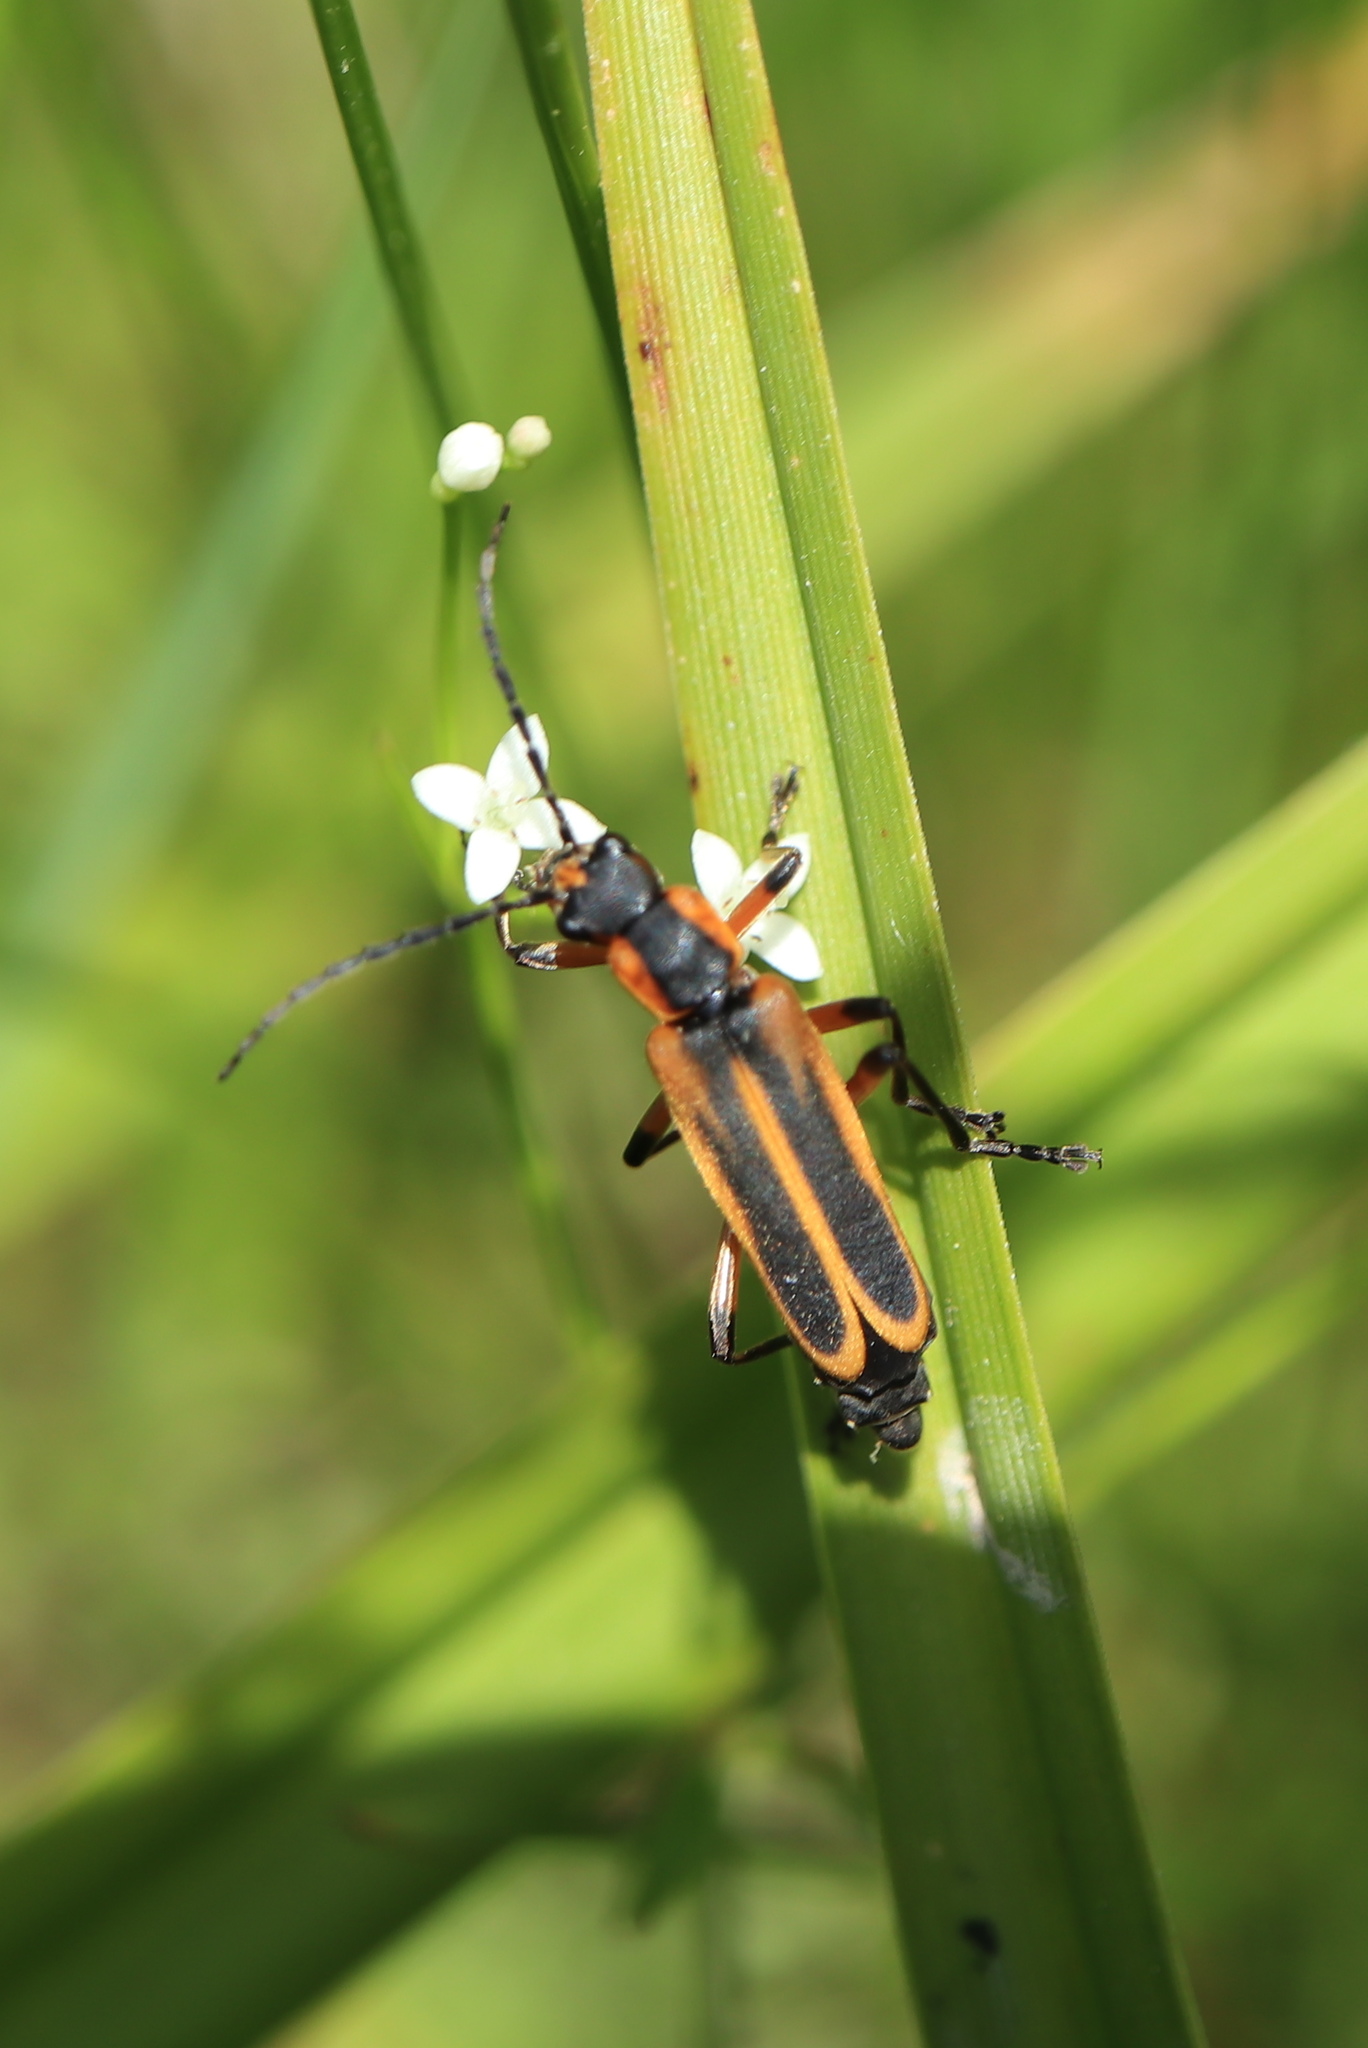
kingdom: Animalia
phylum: Arthropoda
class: Insecta
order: Coleoptera
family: Cantharidae
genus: Chauliognathus
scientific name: Chauliognathus marginatus
